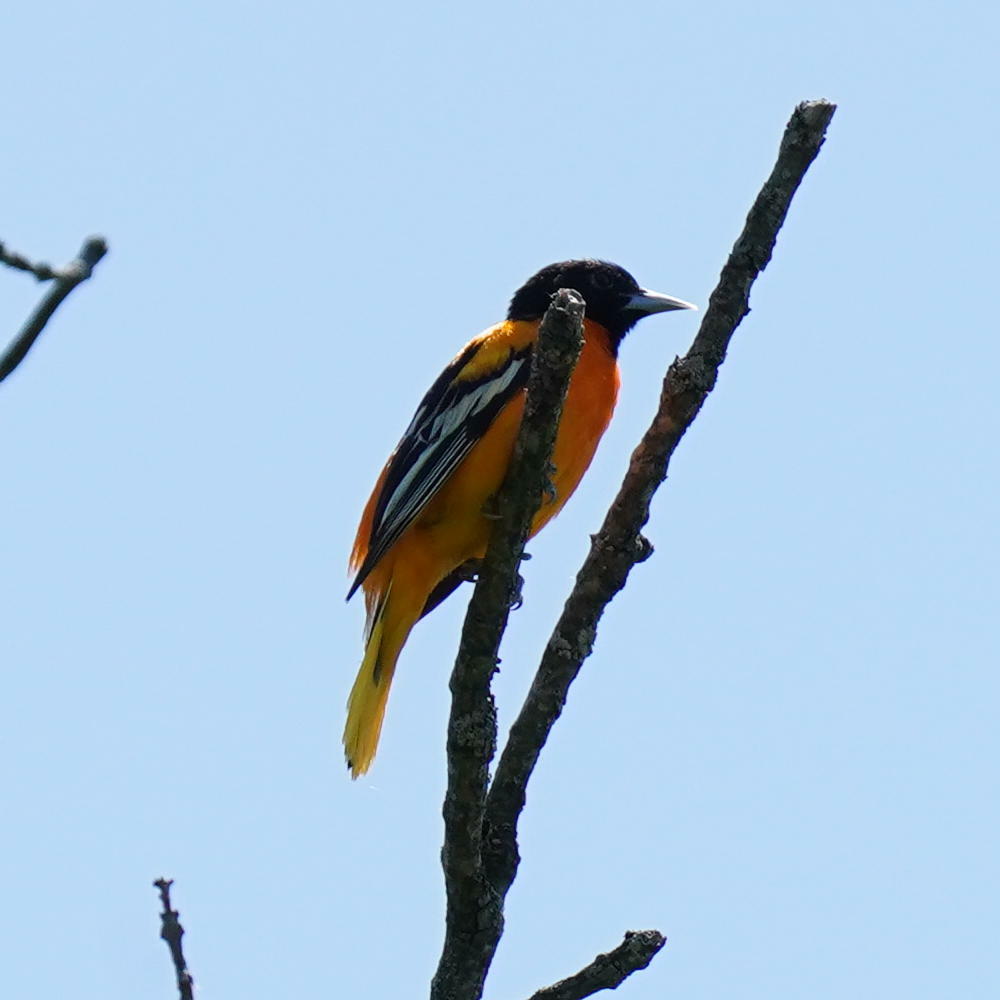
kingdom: Animalia
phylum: Chordata
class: Aves
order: Passeriformes
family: Icteridae
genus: Icterus
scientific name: Icterus galbula
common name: Baltimore oriole
